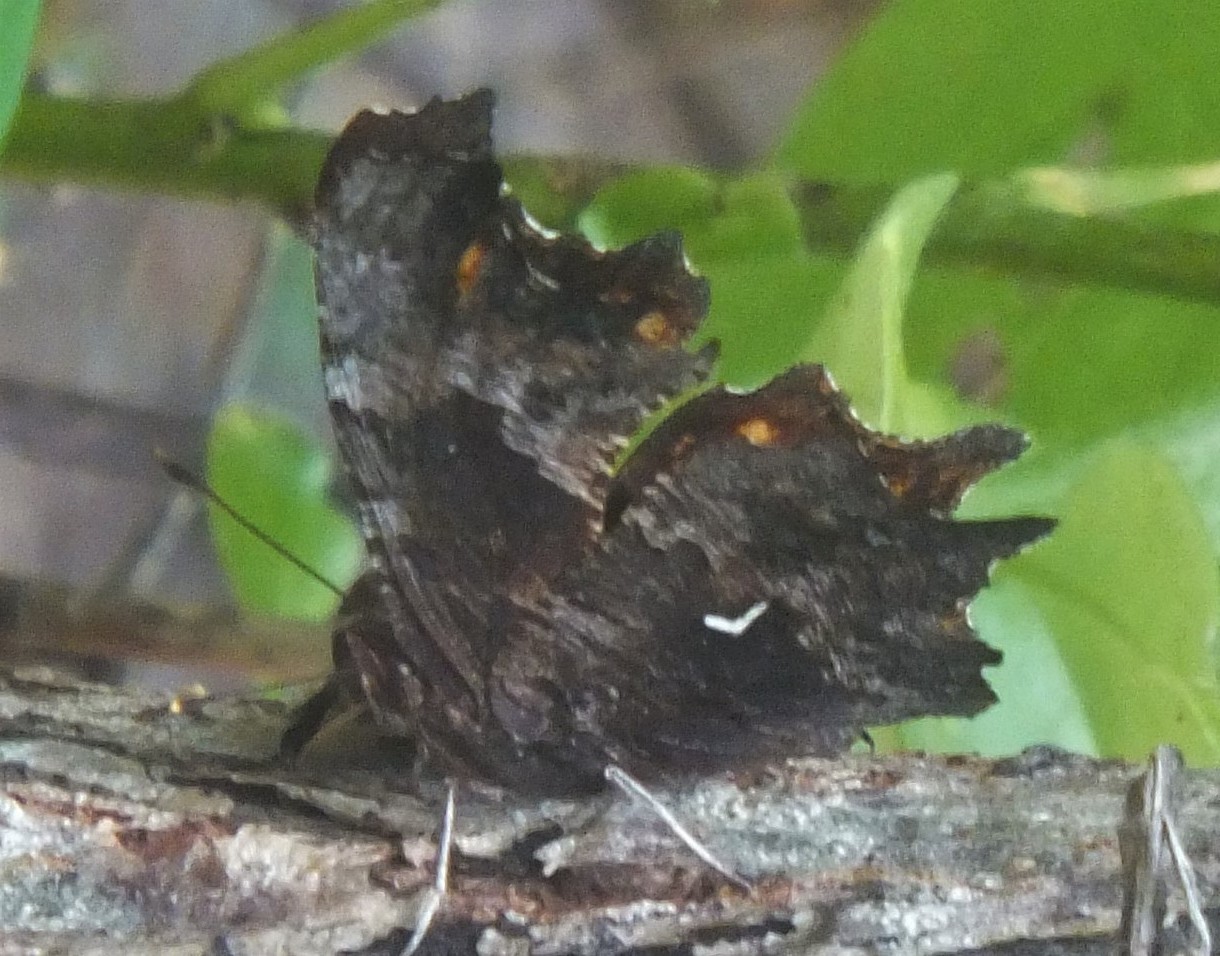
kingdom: Animalia
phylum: Arthropoda
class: Insecta
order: Lepidoptera
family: Nymphalidae
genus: Polygonia
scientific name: Polygonia oreas
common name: Oreas comma
